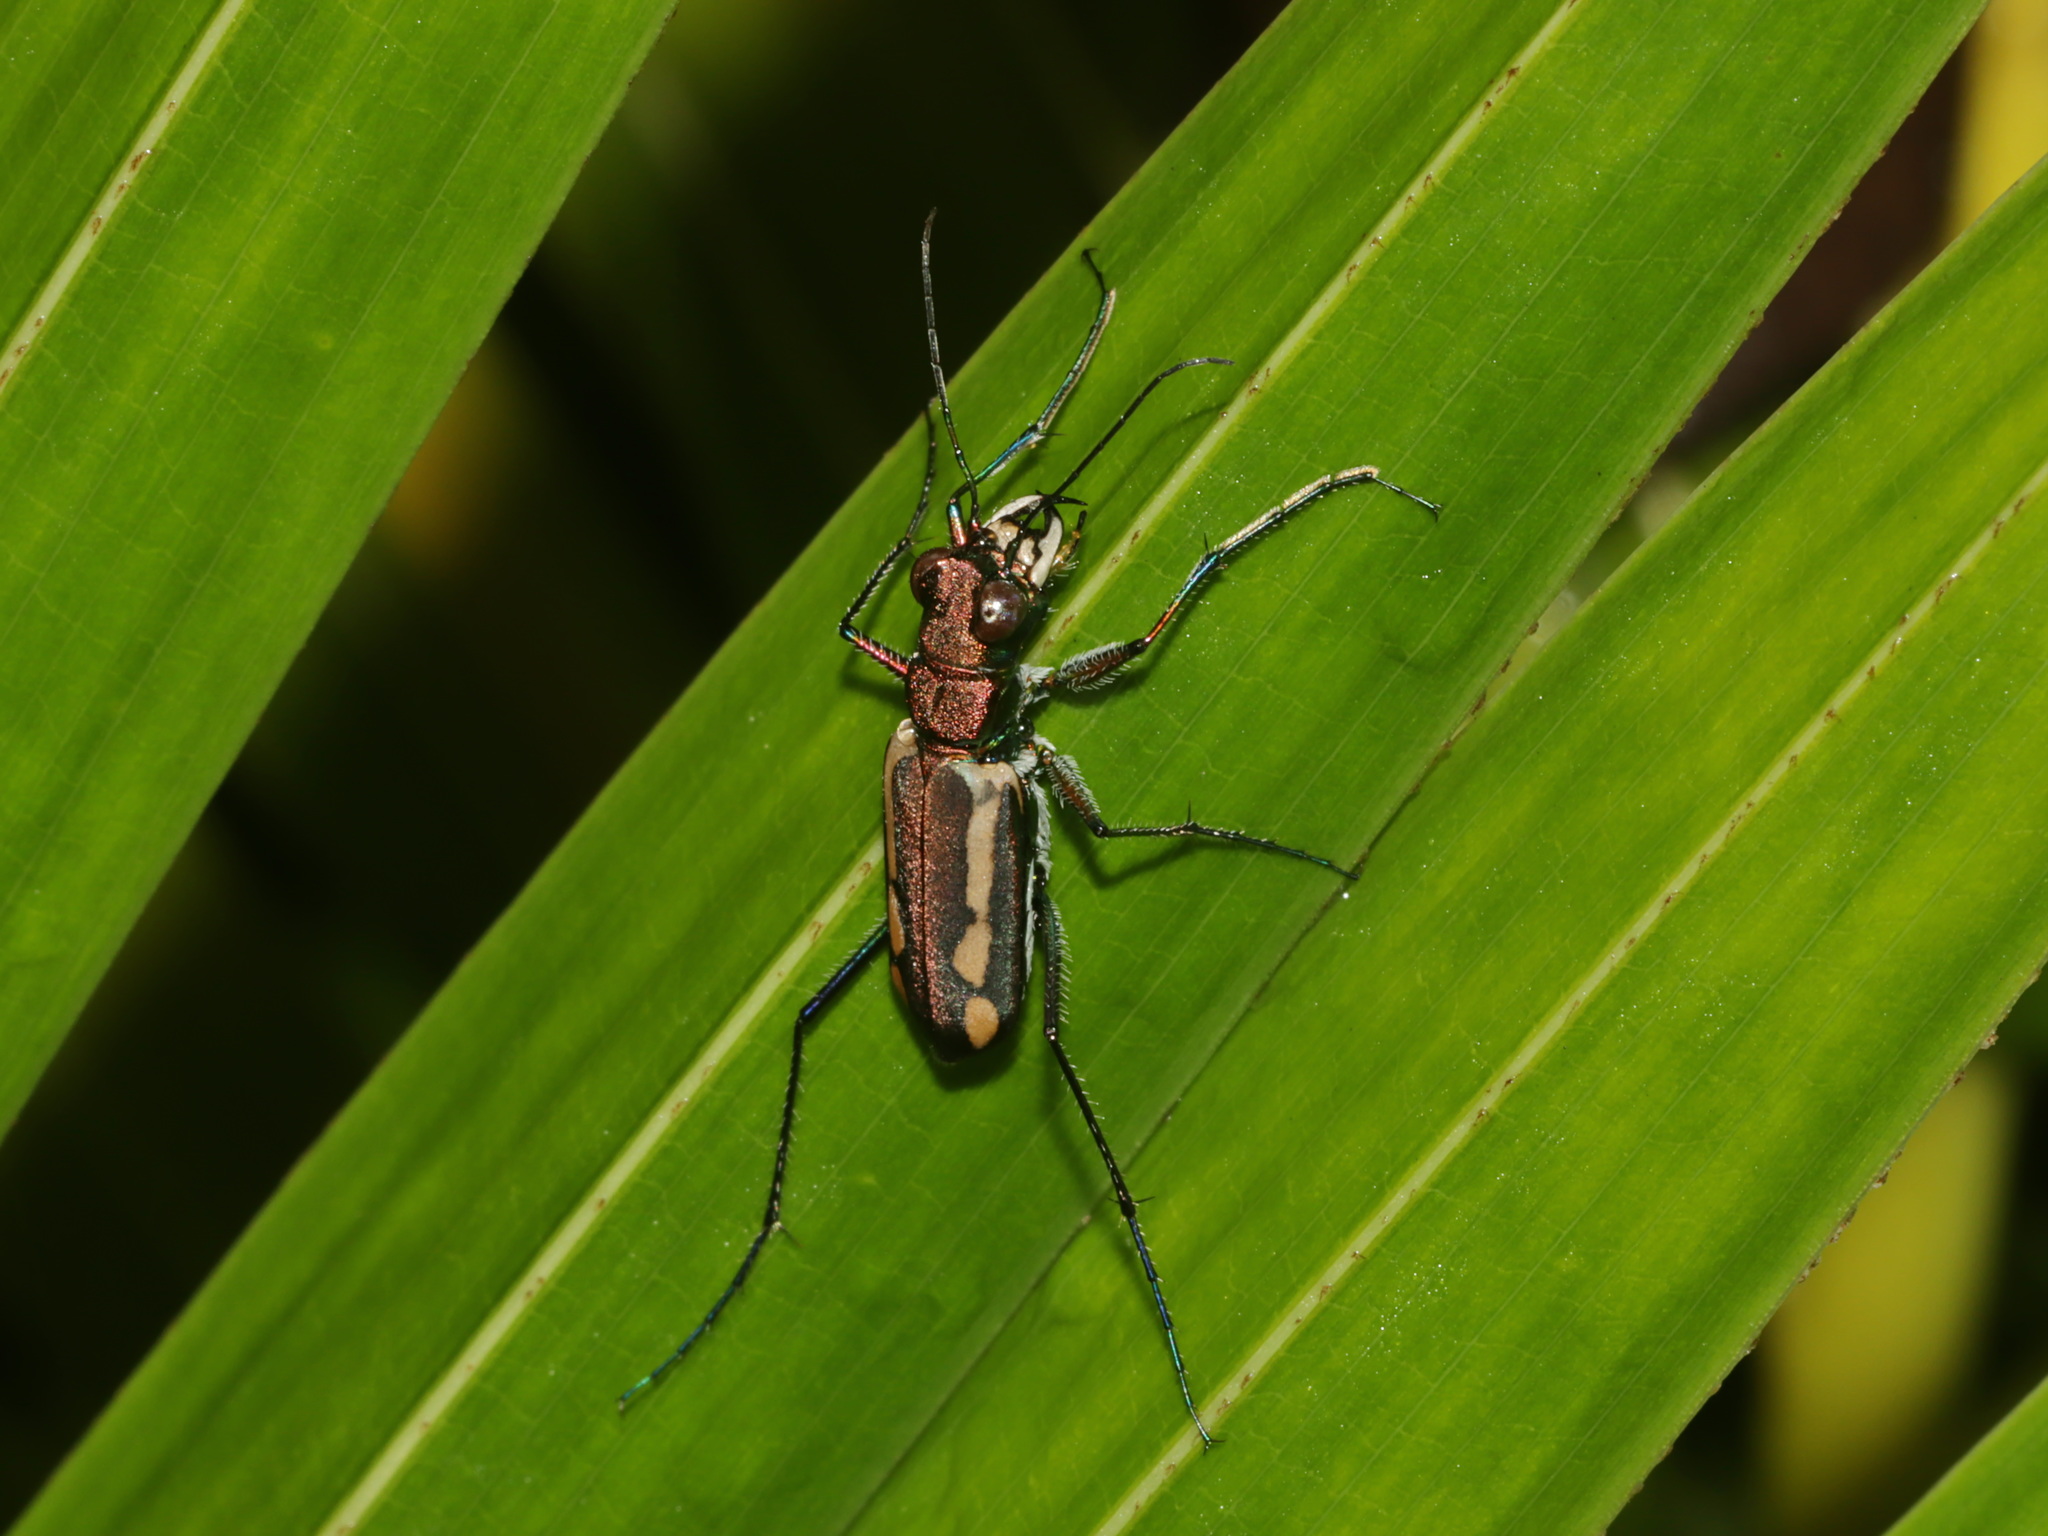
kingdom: Animalia
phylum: Arthropoda
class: Insecta
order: Coleoptera
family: Carabidae
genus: Cicindela
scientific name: Cicindela interruptofasciata
